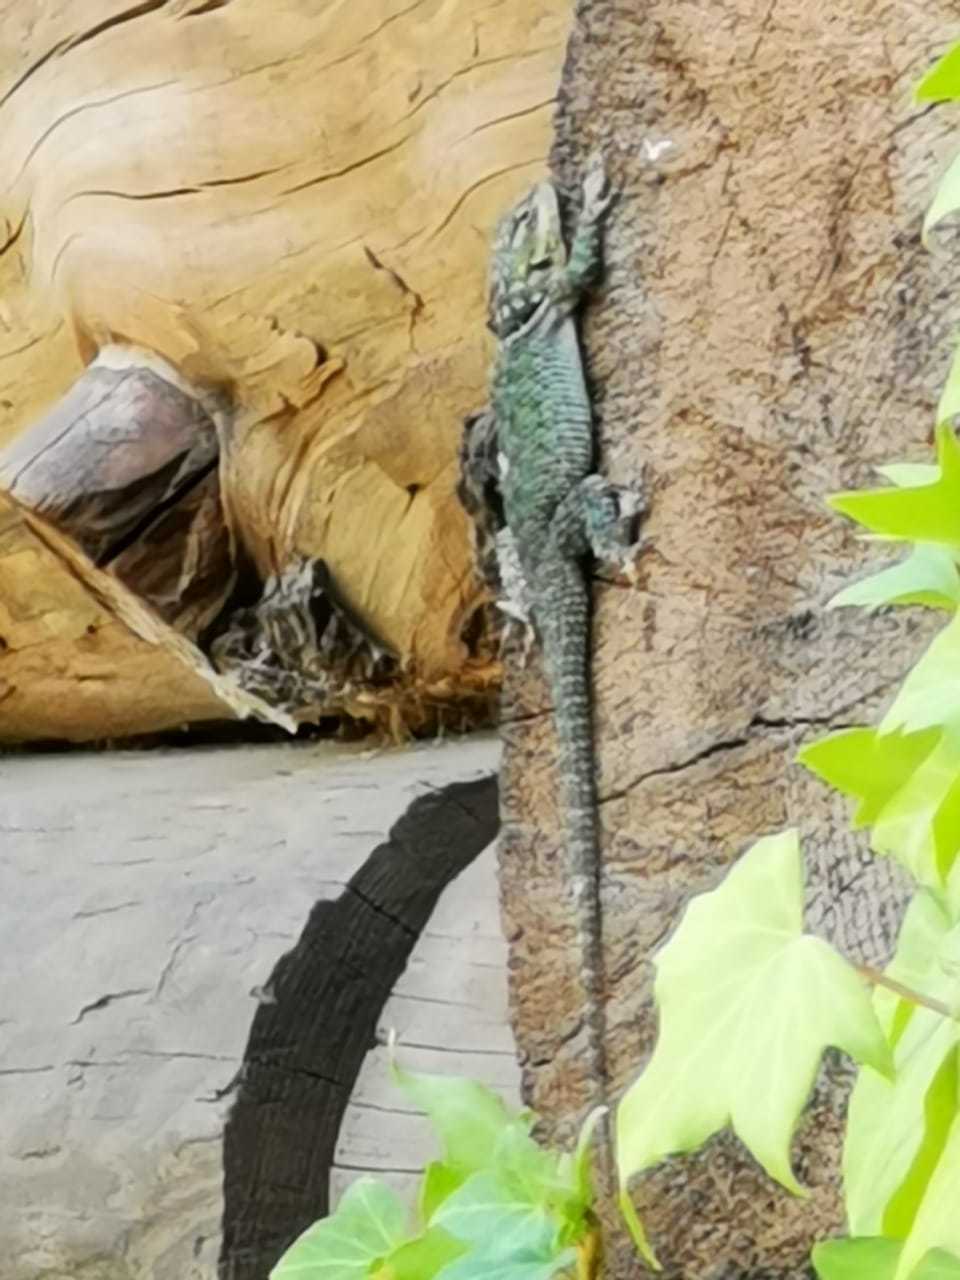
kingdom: Animalia
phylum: Chordata
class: Squamata
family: Phrynosomatidae
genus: Sceloporus
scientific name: Sceloporus cyanogenys
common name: Blue spiny lizard
